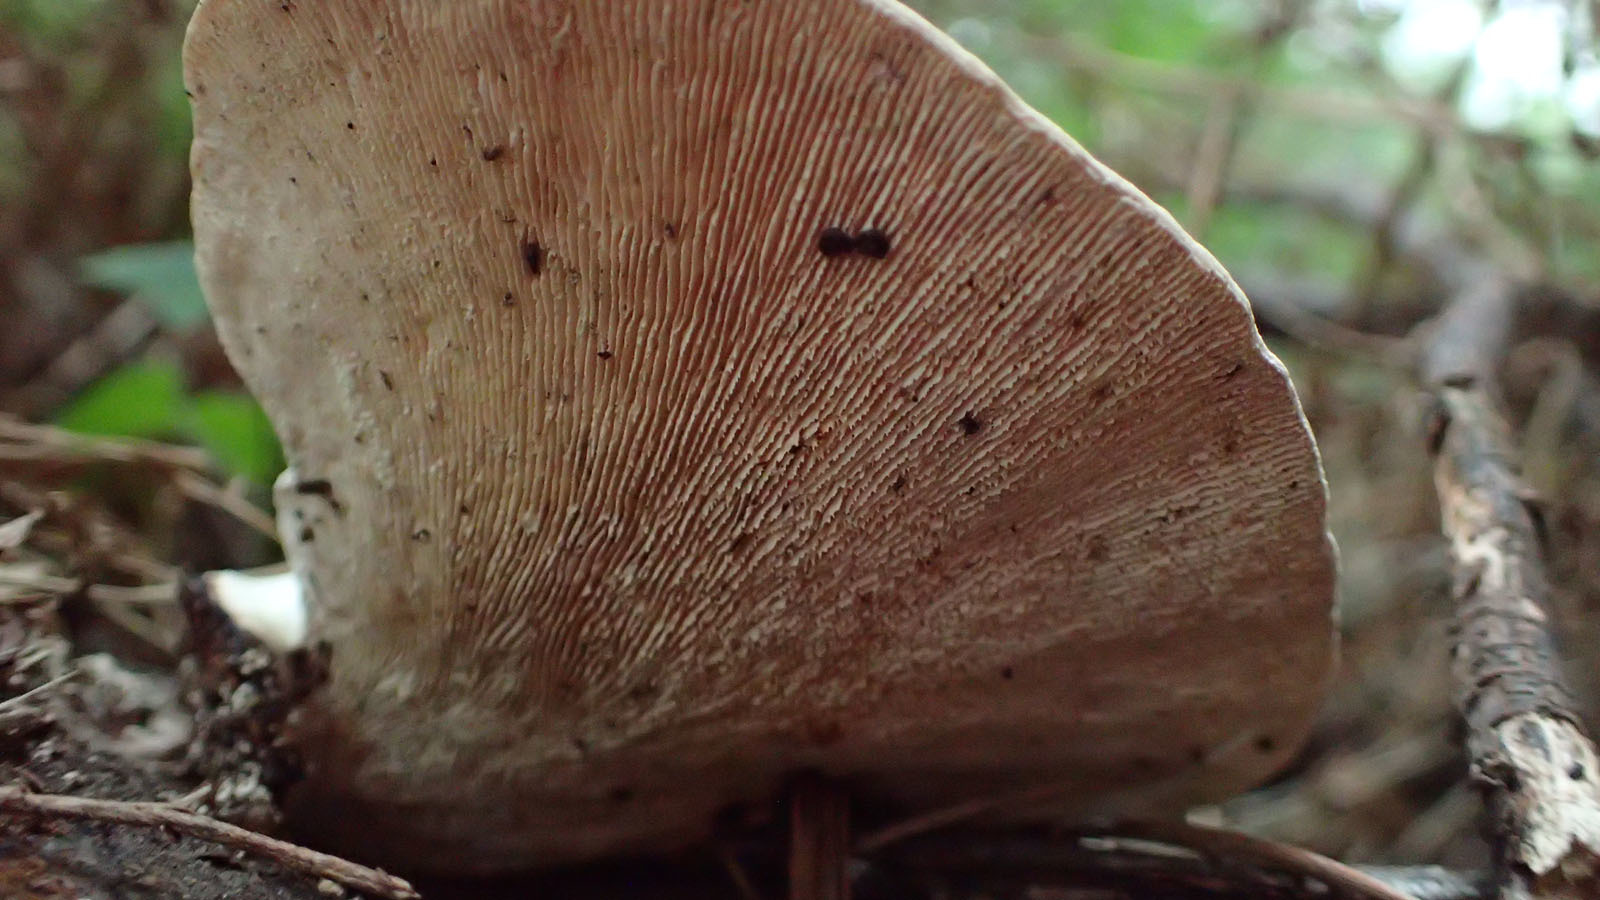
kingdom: Fungi
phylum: Basidiomycota
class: Agaricomycetes
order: Polyporales
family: Polyporaceae
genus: Trametes
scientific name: Trametes elegans
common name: White maze polypore
